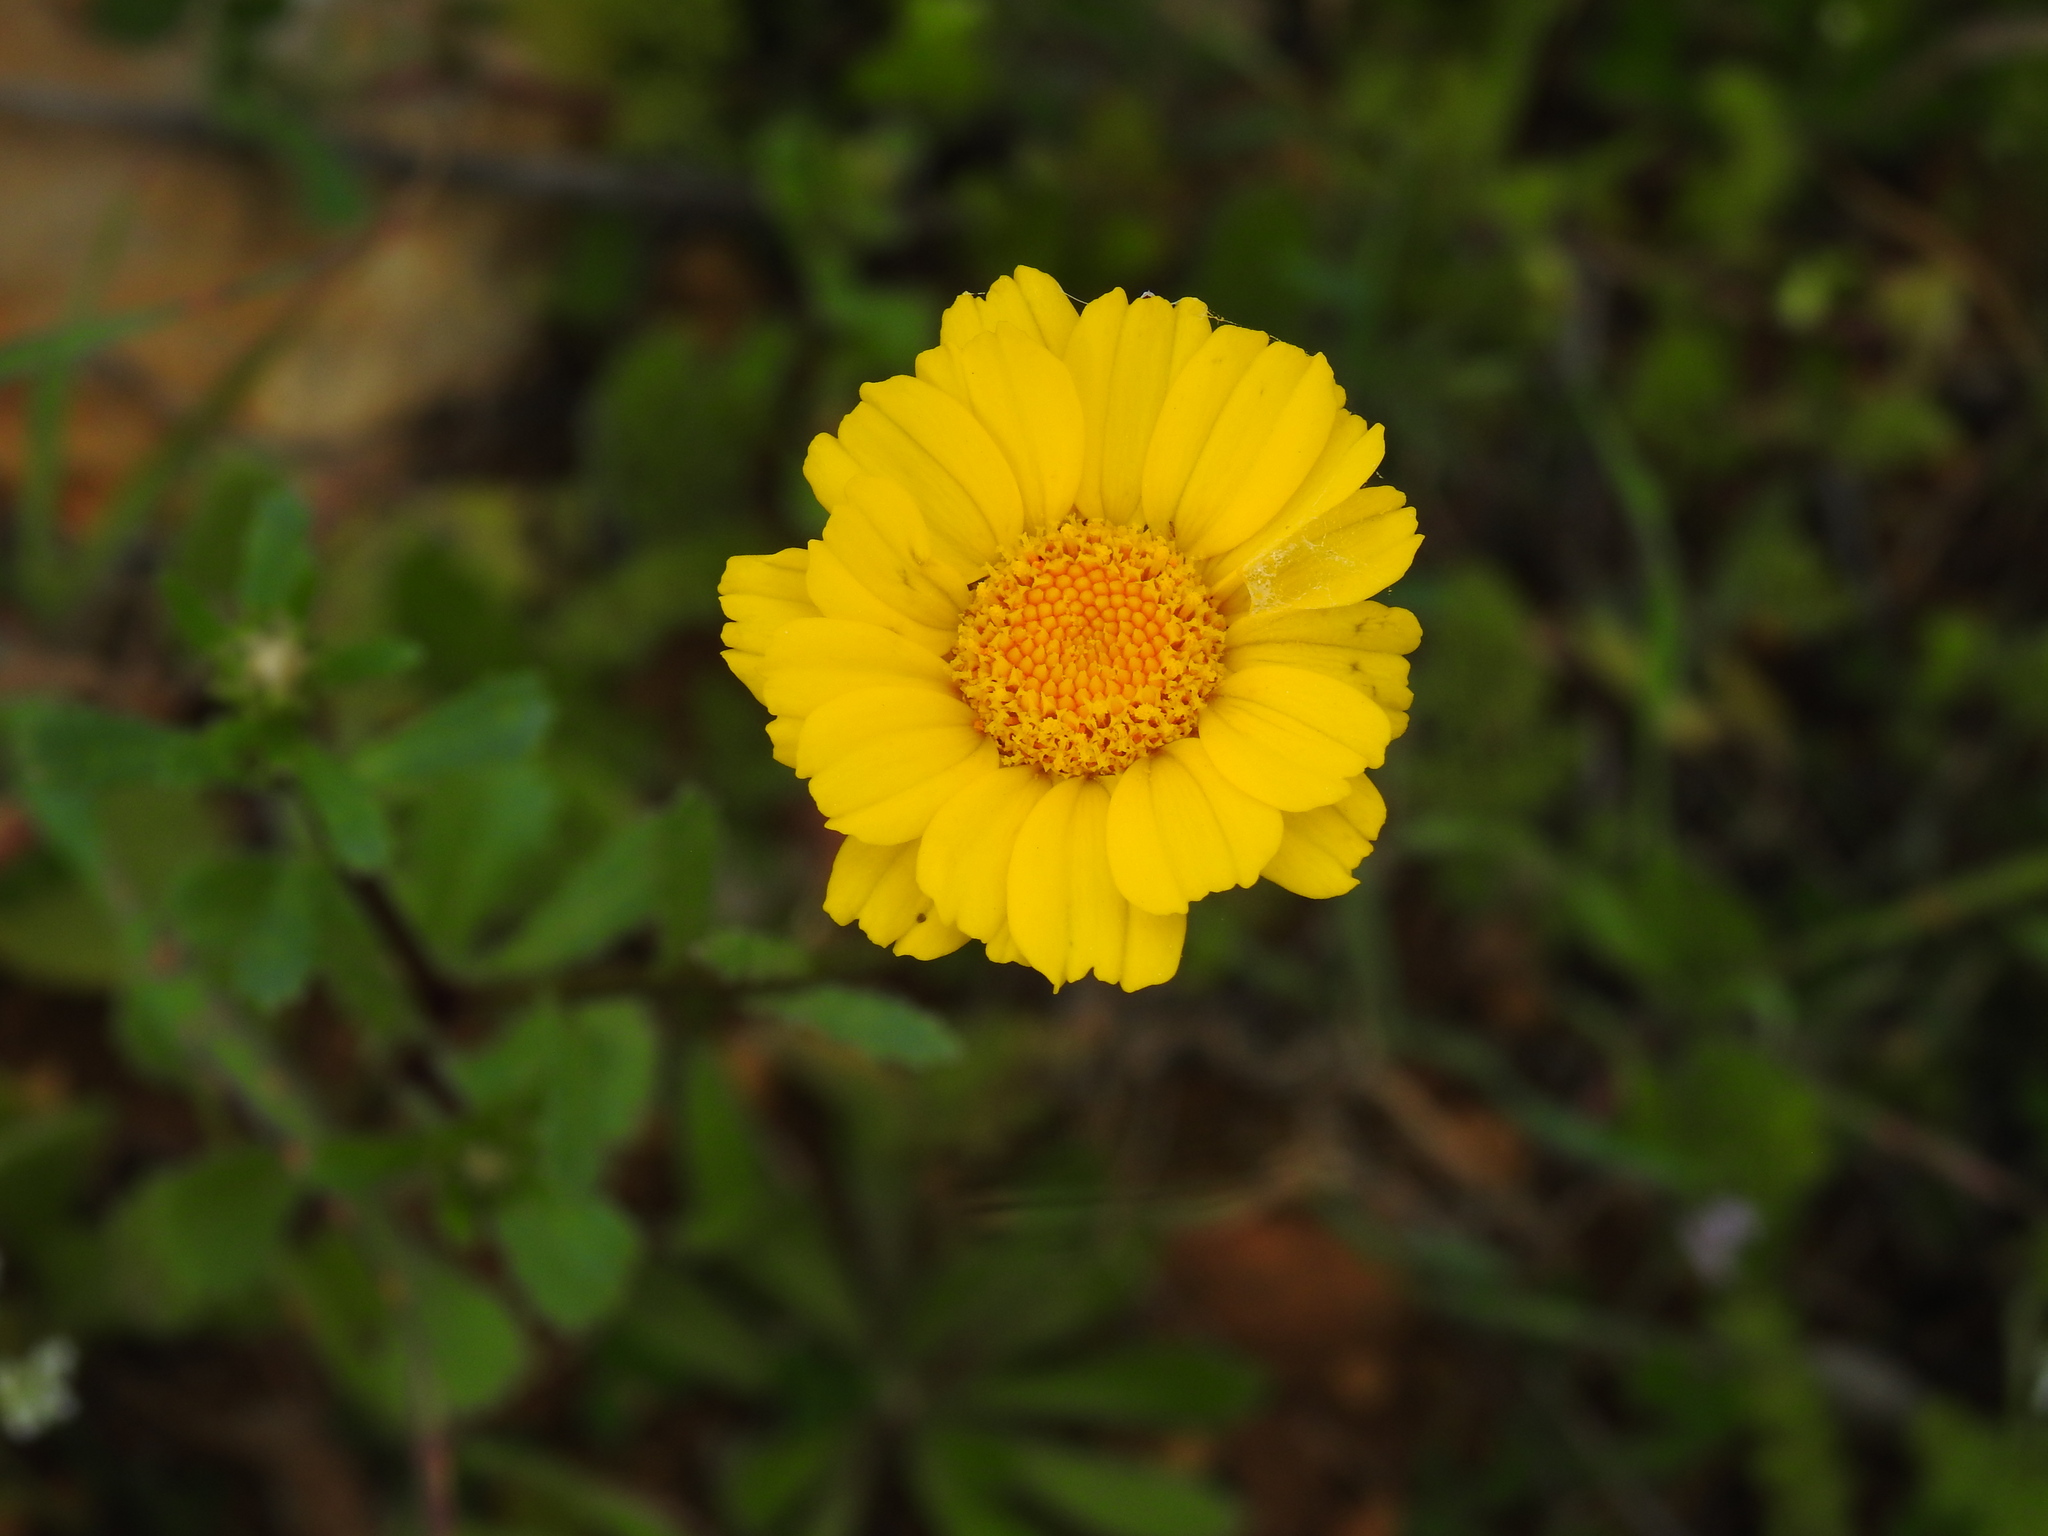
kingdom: Plantae
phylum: Tracheophyta
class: Magnoliopsida
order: Asterales
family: Asteraceae
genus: Glossopappus
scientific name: Glossopappus macrotus
